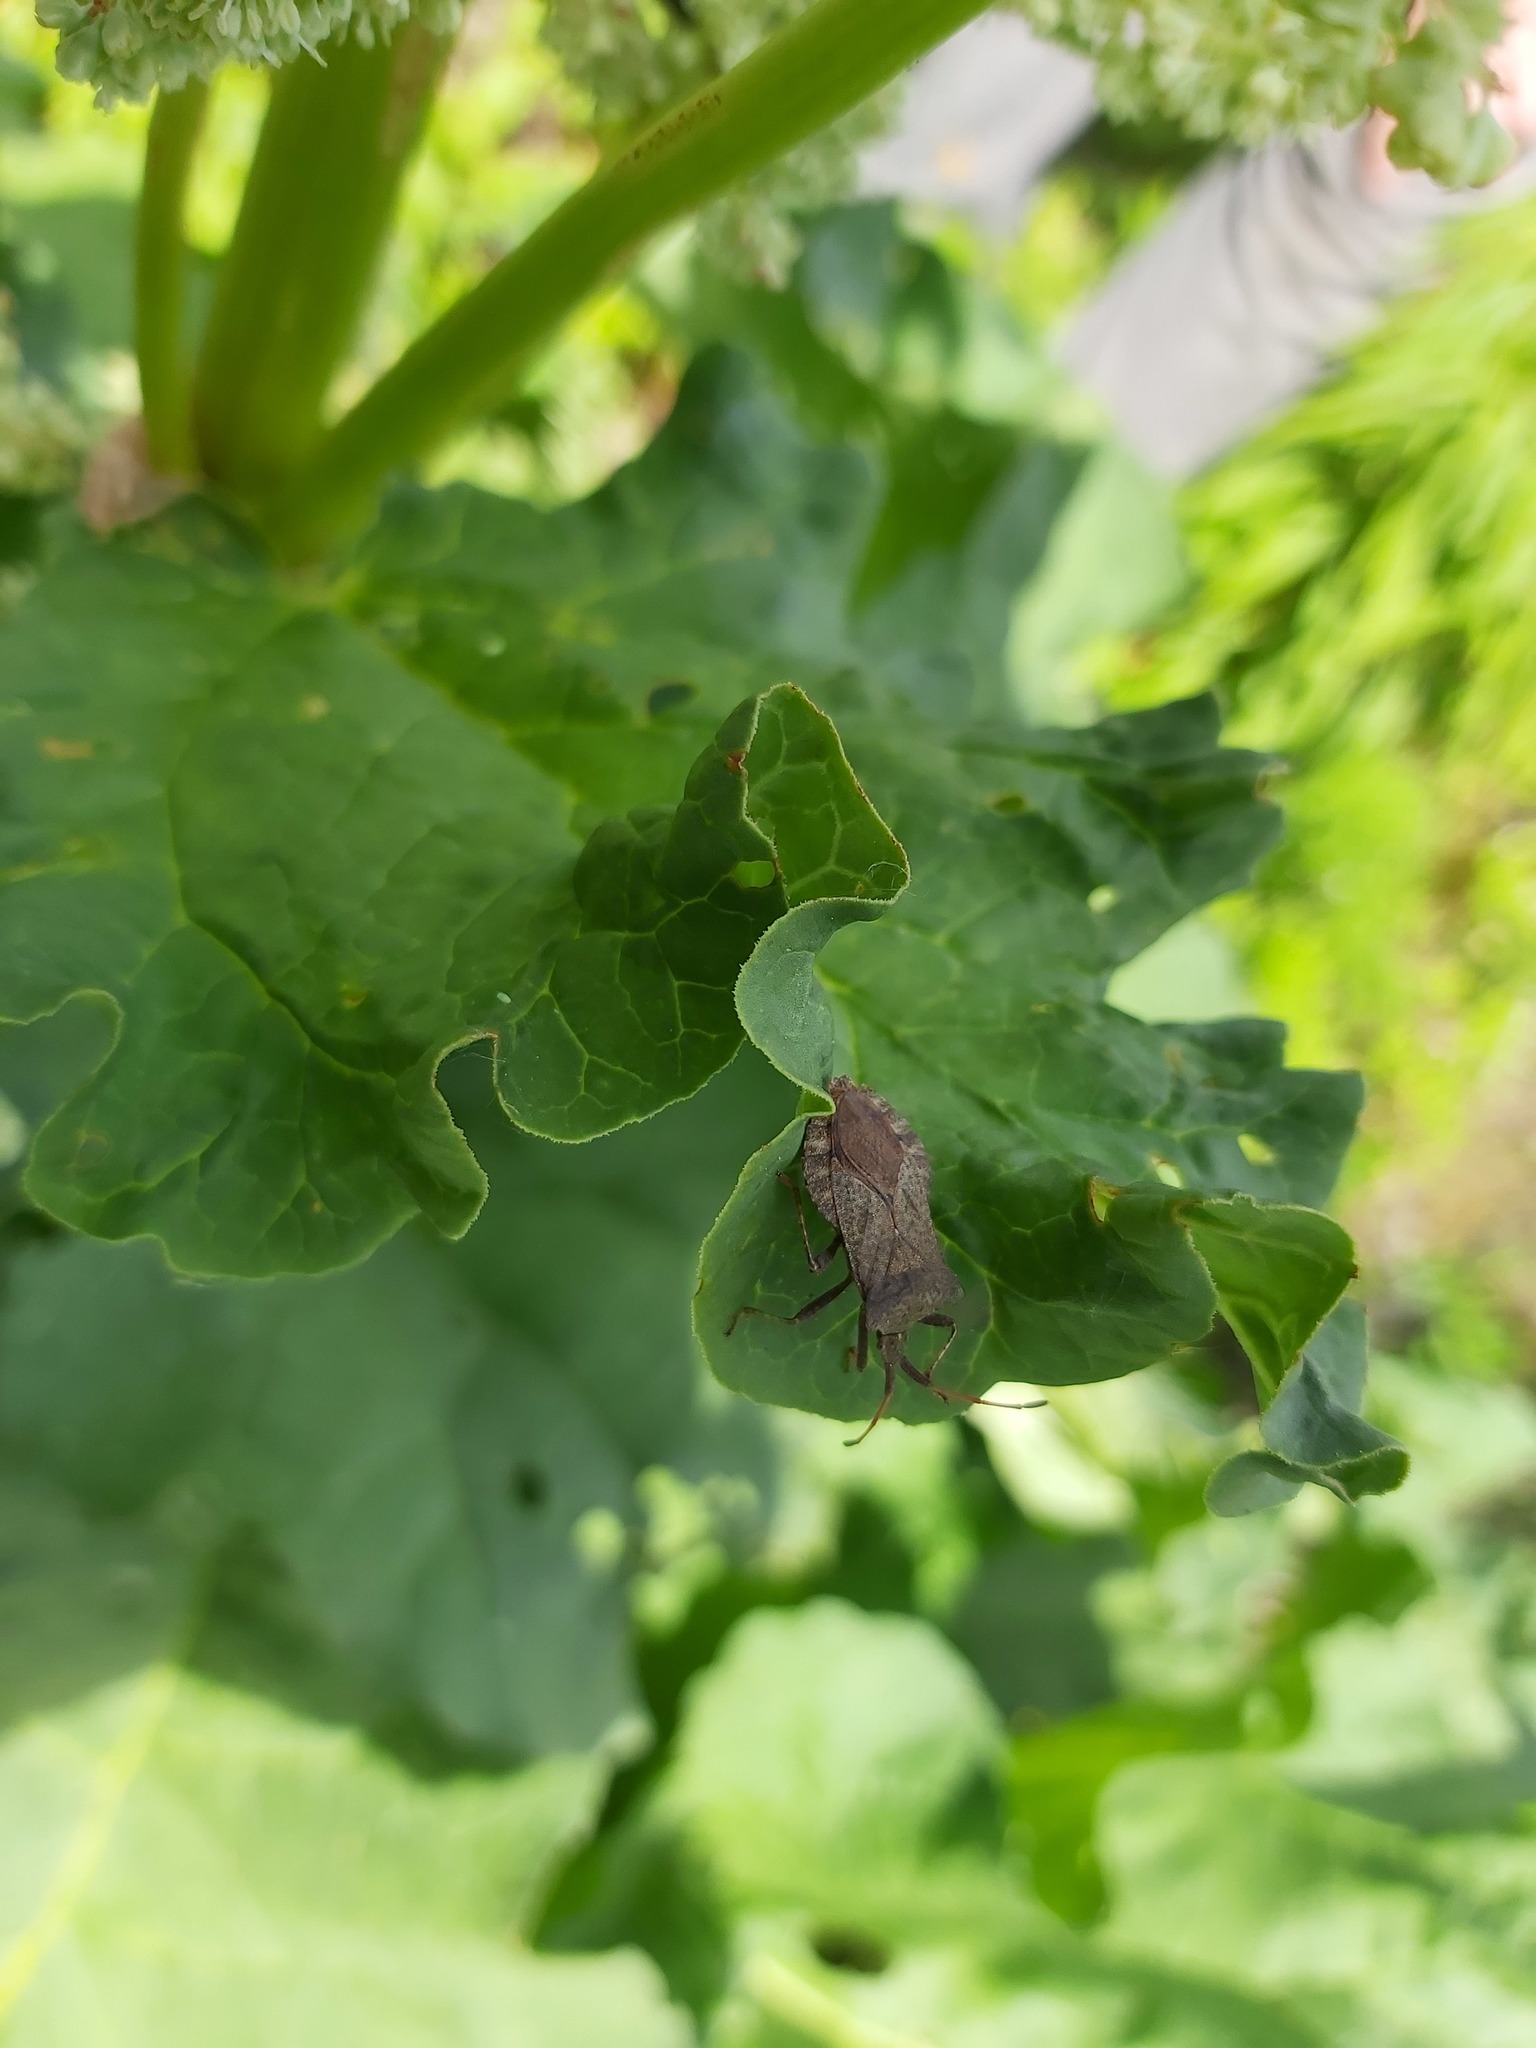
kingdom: Animalia
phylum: Arthropoda
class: Insecta
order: Hemiptera
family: Coreidae
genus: Coreus
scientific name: Coreus marginatus
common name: Dock bug
